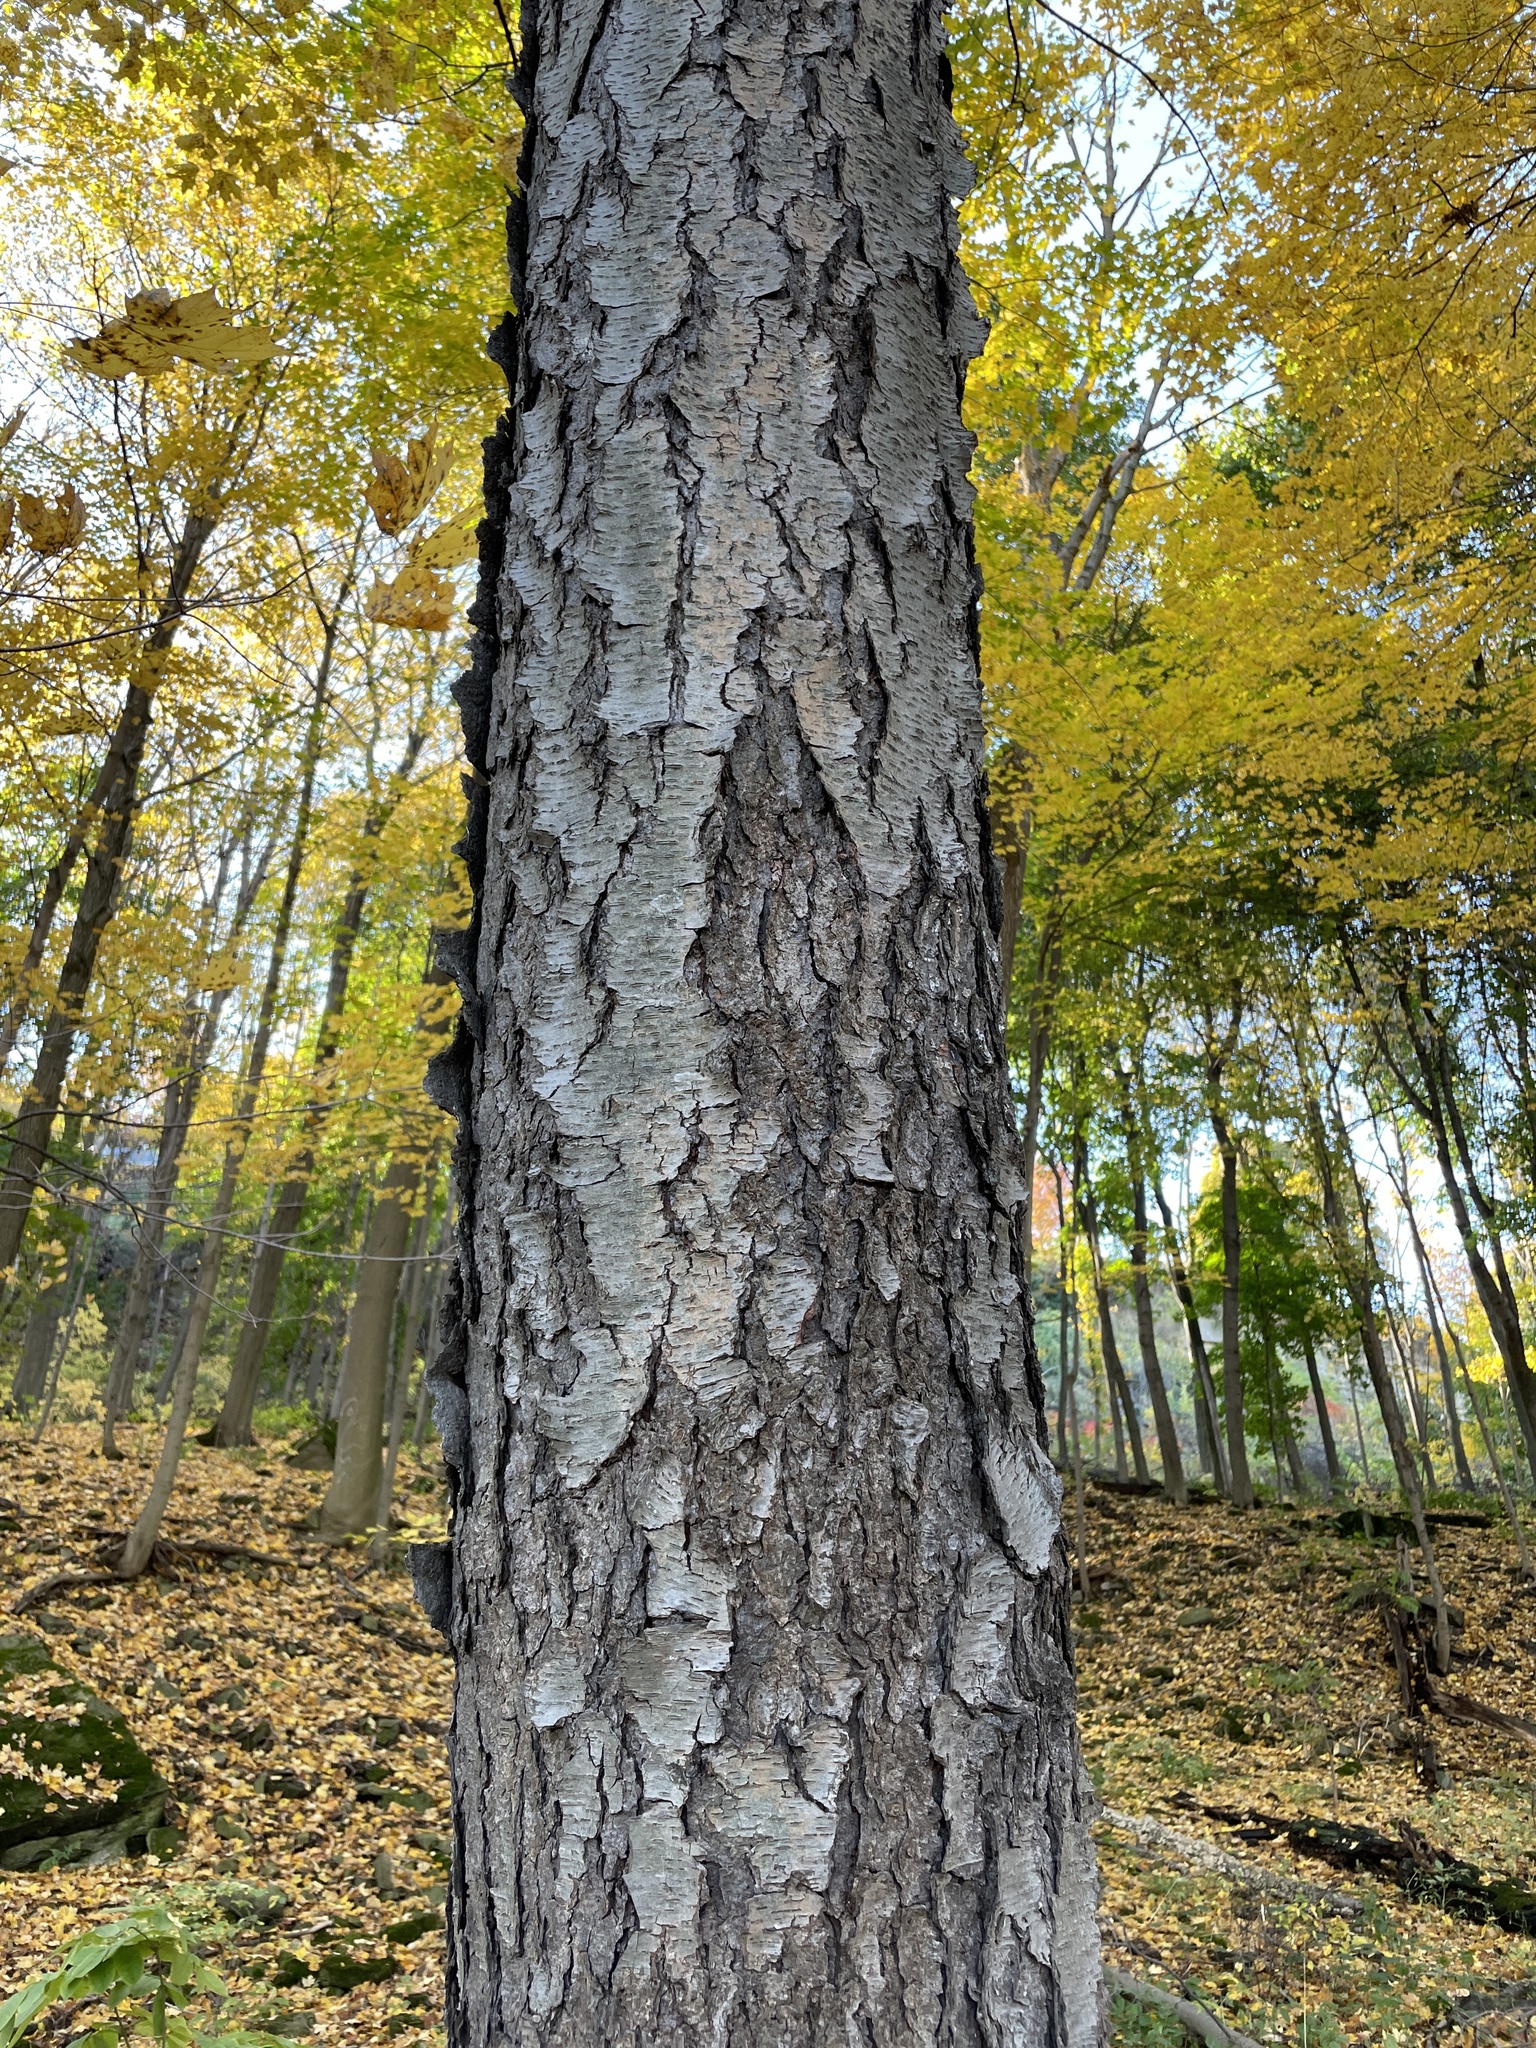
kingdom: Plantae
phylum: Tracheophyta
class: Magnoliopsida
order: Rosales
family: Rosaceae
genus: Prunus
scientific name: Prunus serotina
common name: Black cherry
